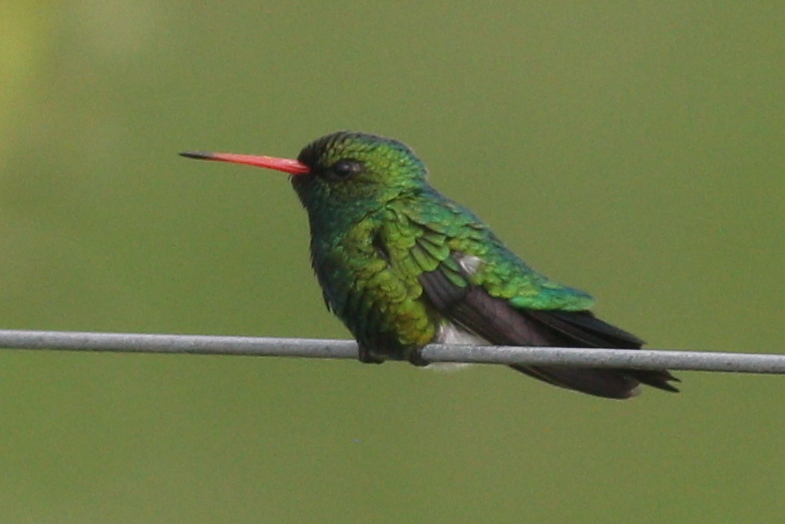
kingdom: Animalia
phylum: Chordata
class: Aves
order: Apodiformes
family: Trochilidae
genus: Chlorostilbon
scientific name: Chlorostilbon lucidus
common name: Glittering-bellied emerald
